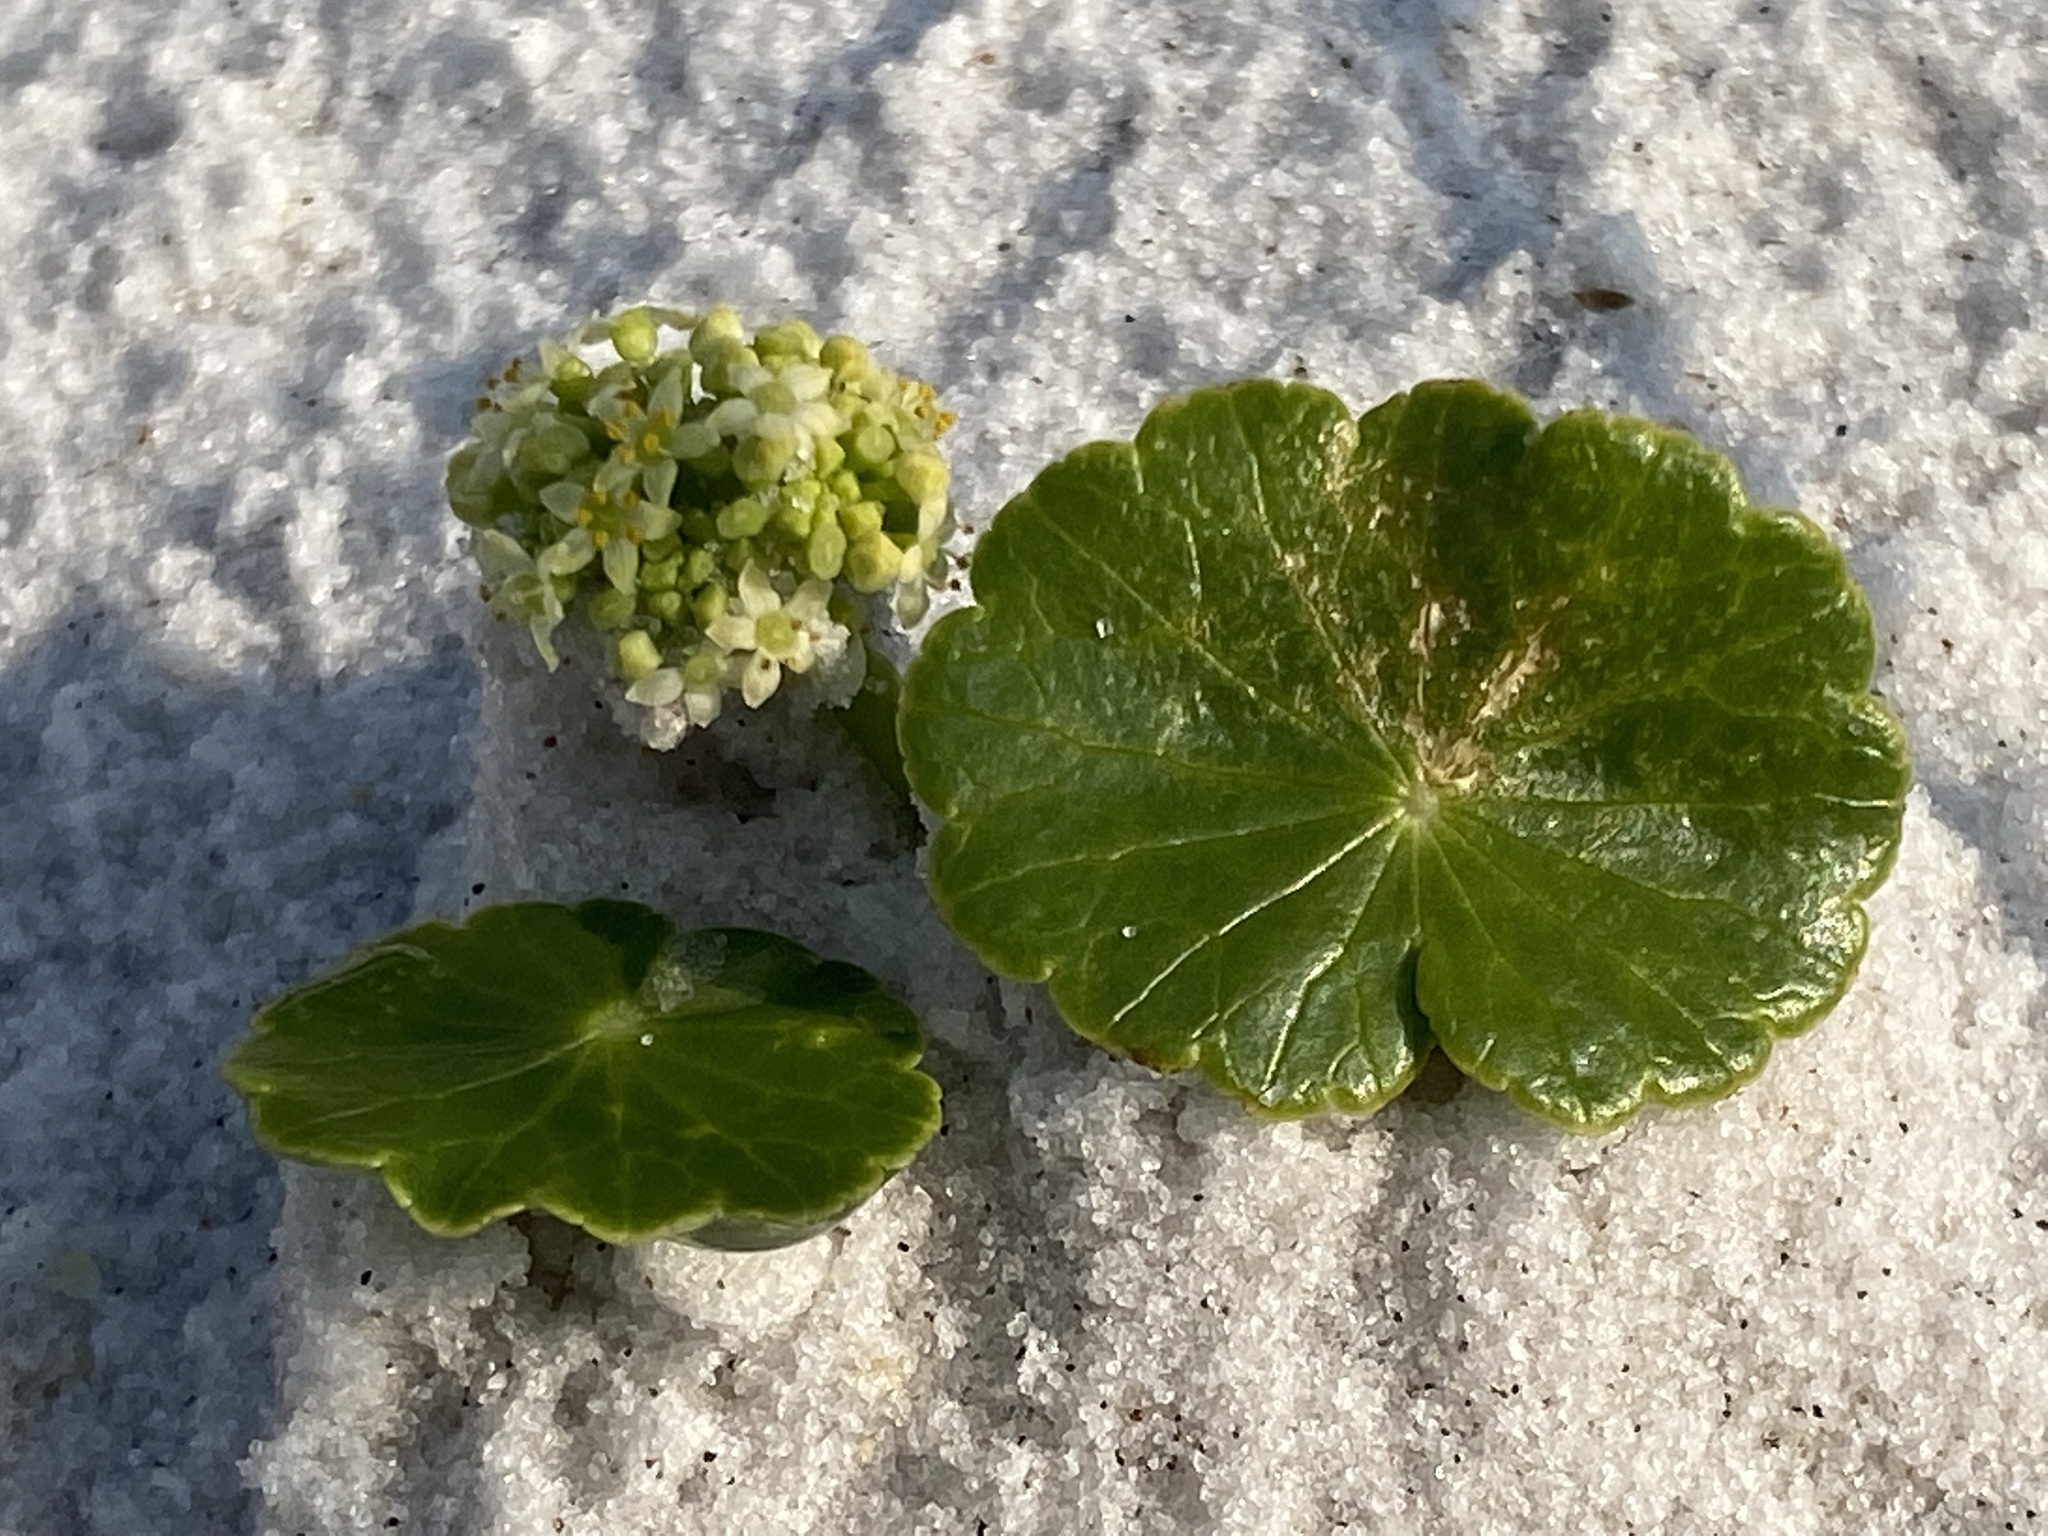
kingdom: Plantae
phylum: Tracheophyta
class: Magnoliopsida
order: Apiales
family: Araliaceae
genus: Hydrocotyle
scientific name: Hydrocotyle bonariensis
